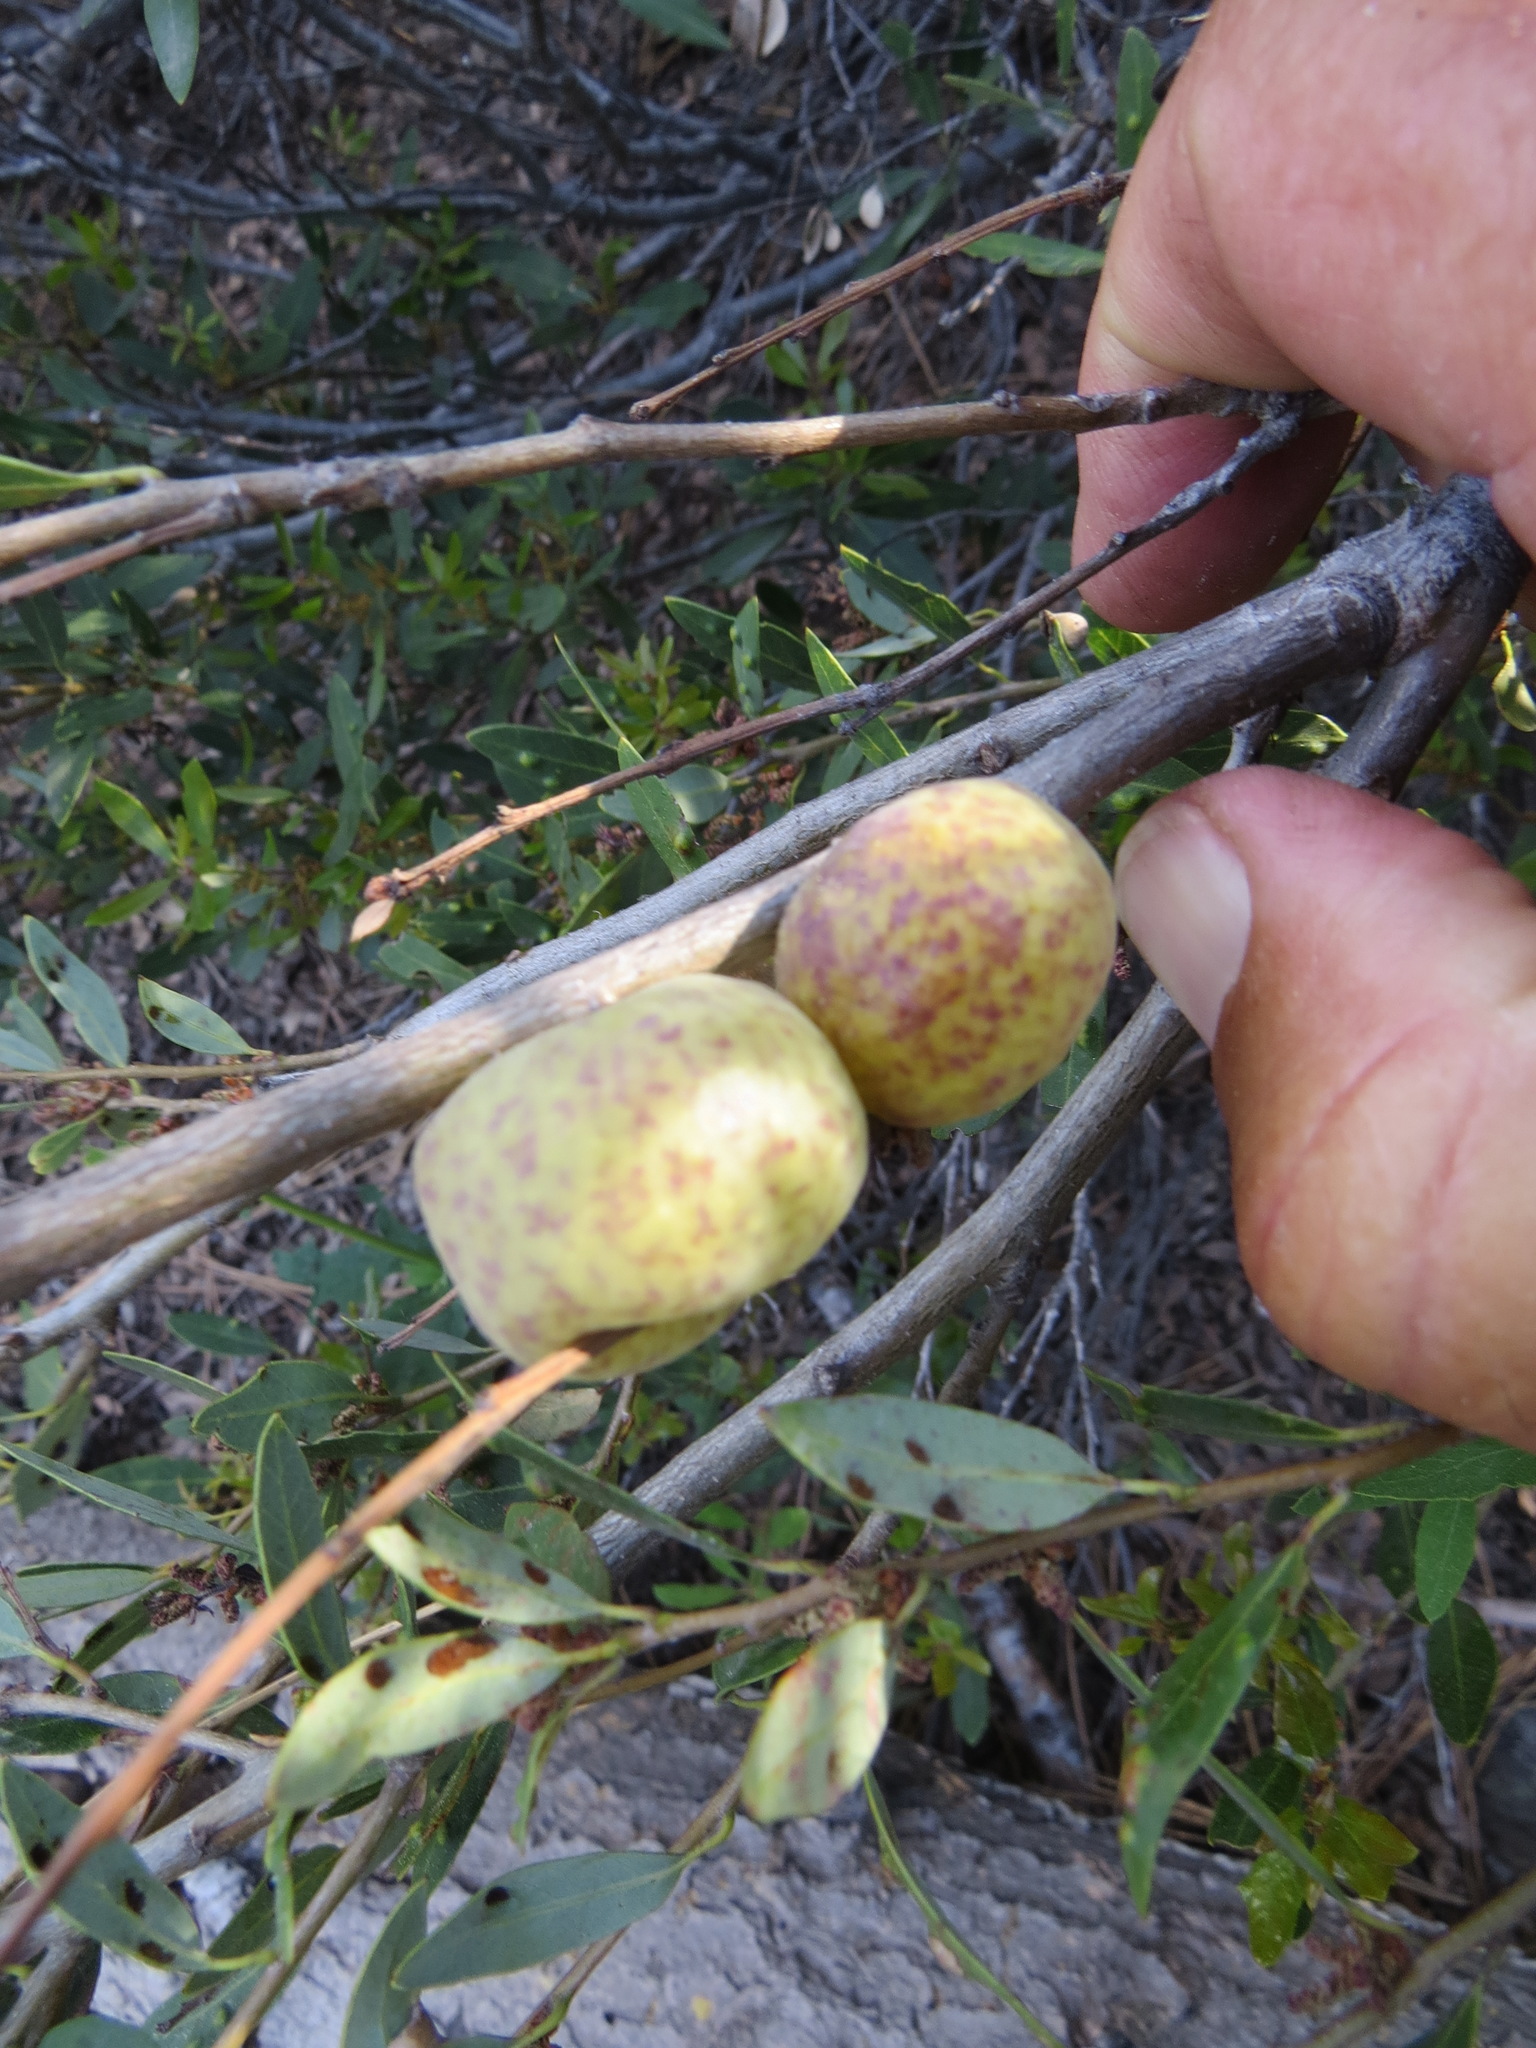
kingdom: Animalia
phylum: Arthropoda
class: Insecta
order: Hymenoptera
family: Cynipidae
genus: Andricus
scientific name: Andricus
